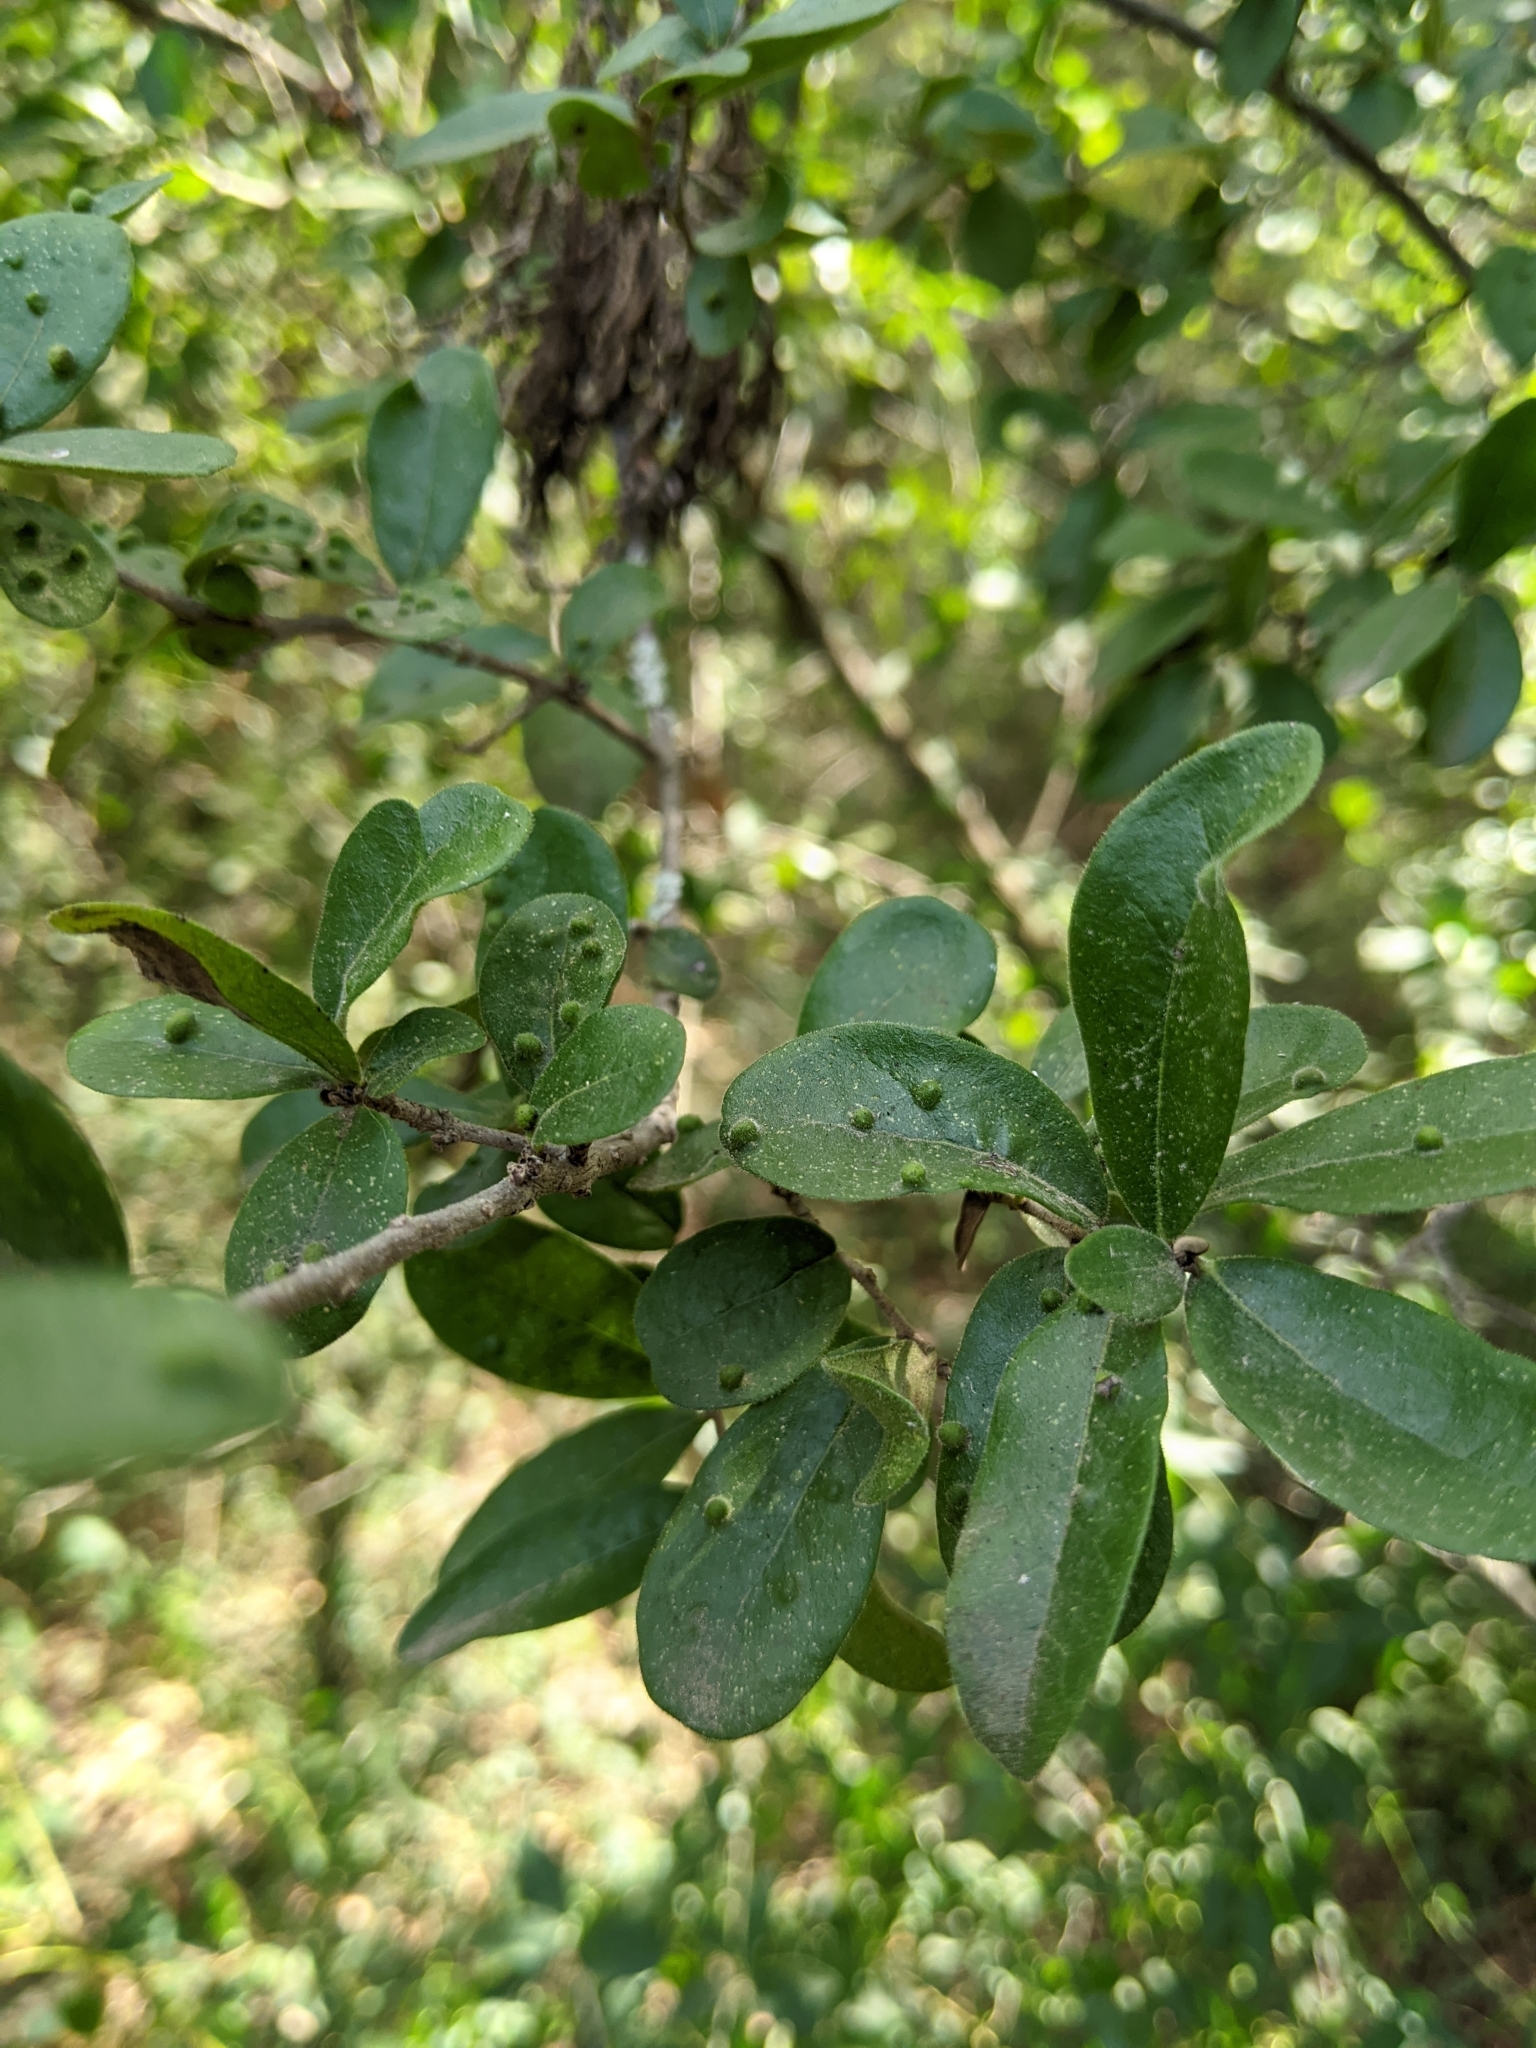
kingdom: Plantae
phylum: Tracheophyta
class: Magnoliopsida
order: Ericales
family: Ebenaceae
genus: Diospyros
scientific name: Diospyros texana
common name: Texas persimmon
